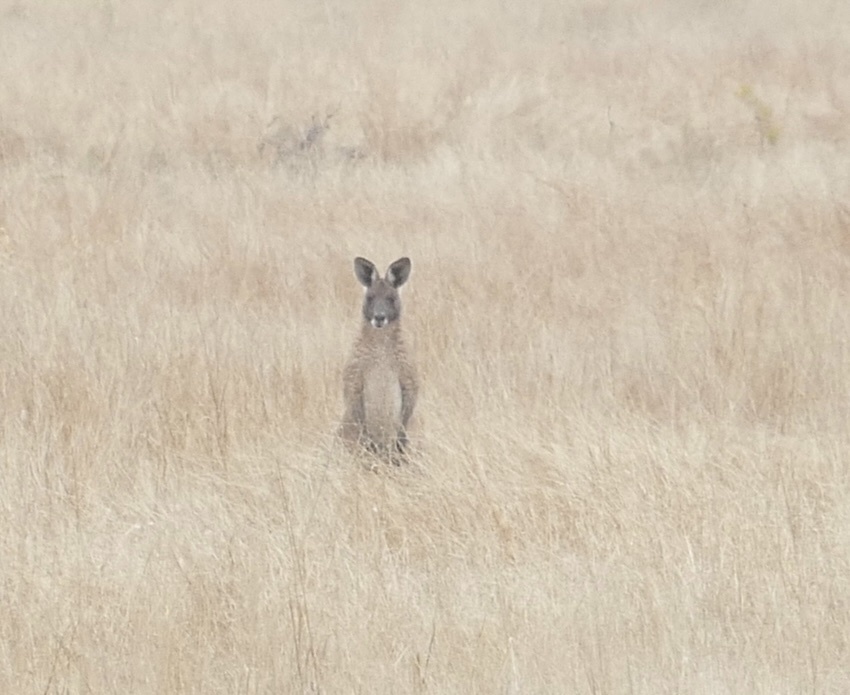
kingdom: Animalia
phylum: Chordata
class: Mammalia
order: Diprotodontia
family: Macropodidae
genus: Macropus
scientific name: Macropus giganteus
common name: Eastern grey kangaroo
